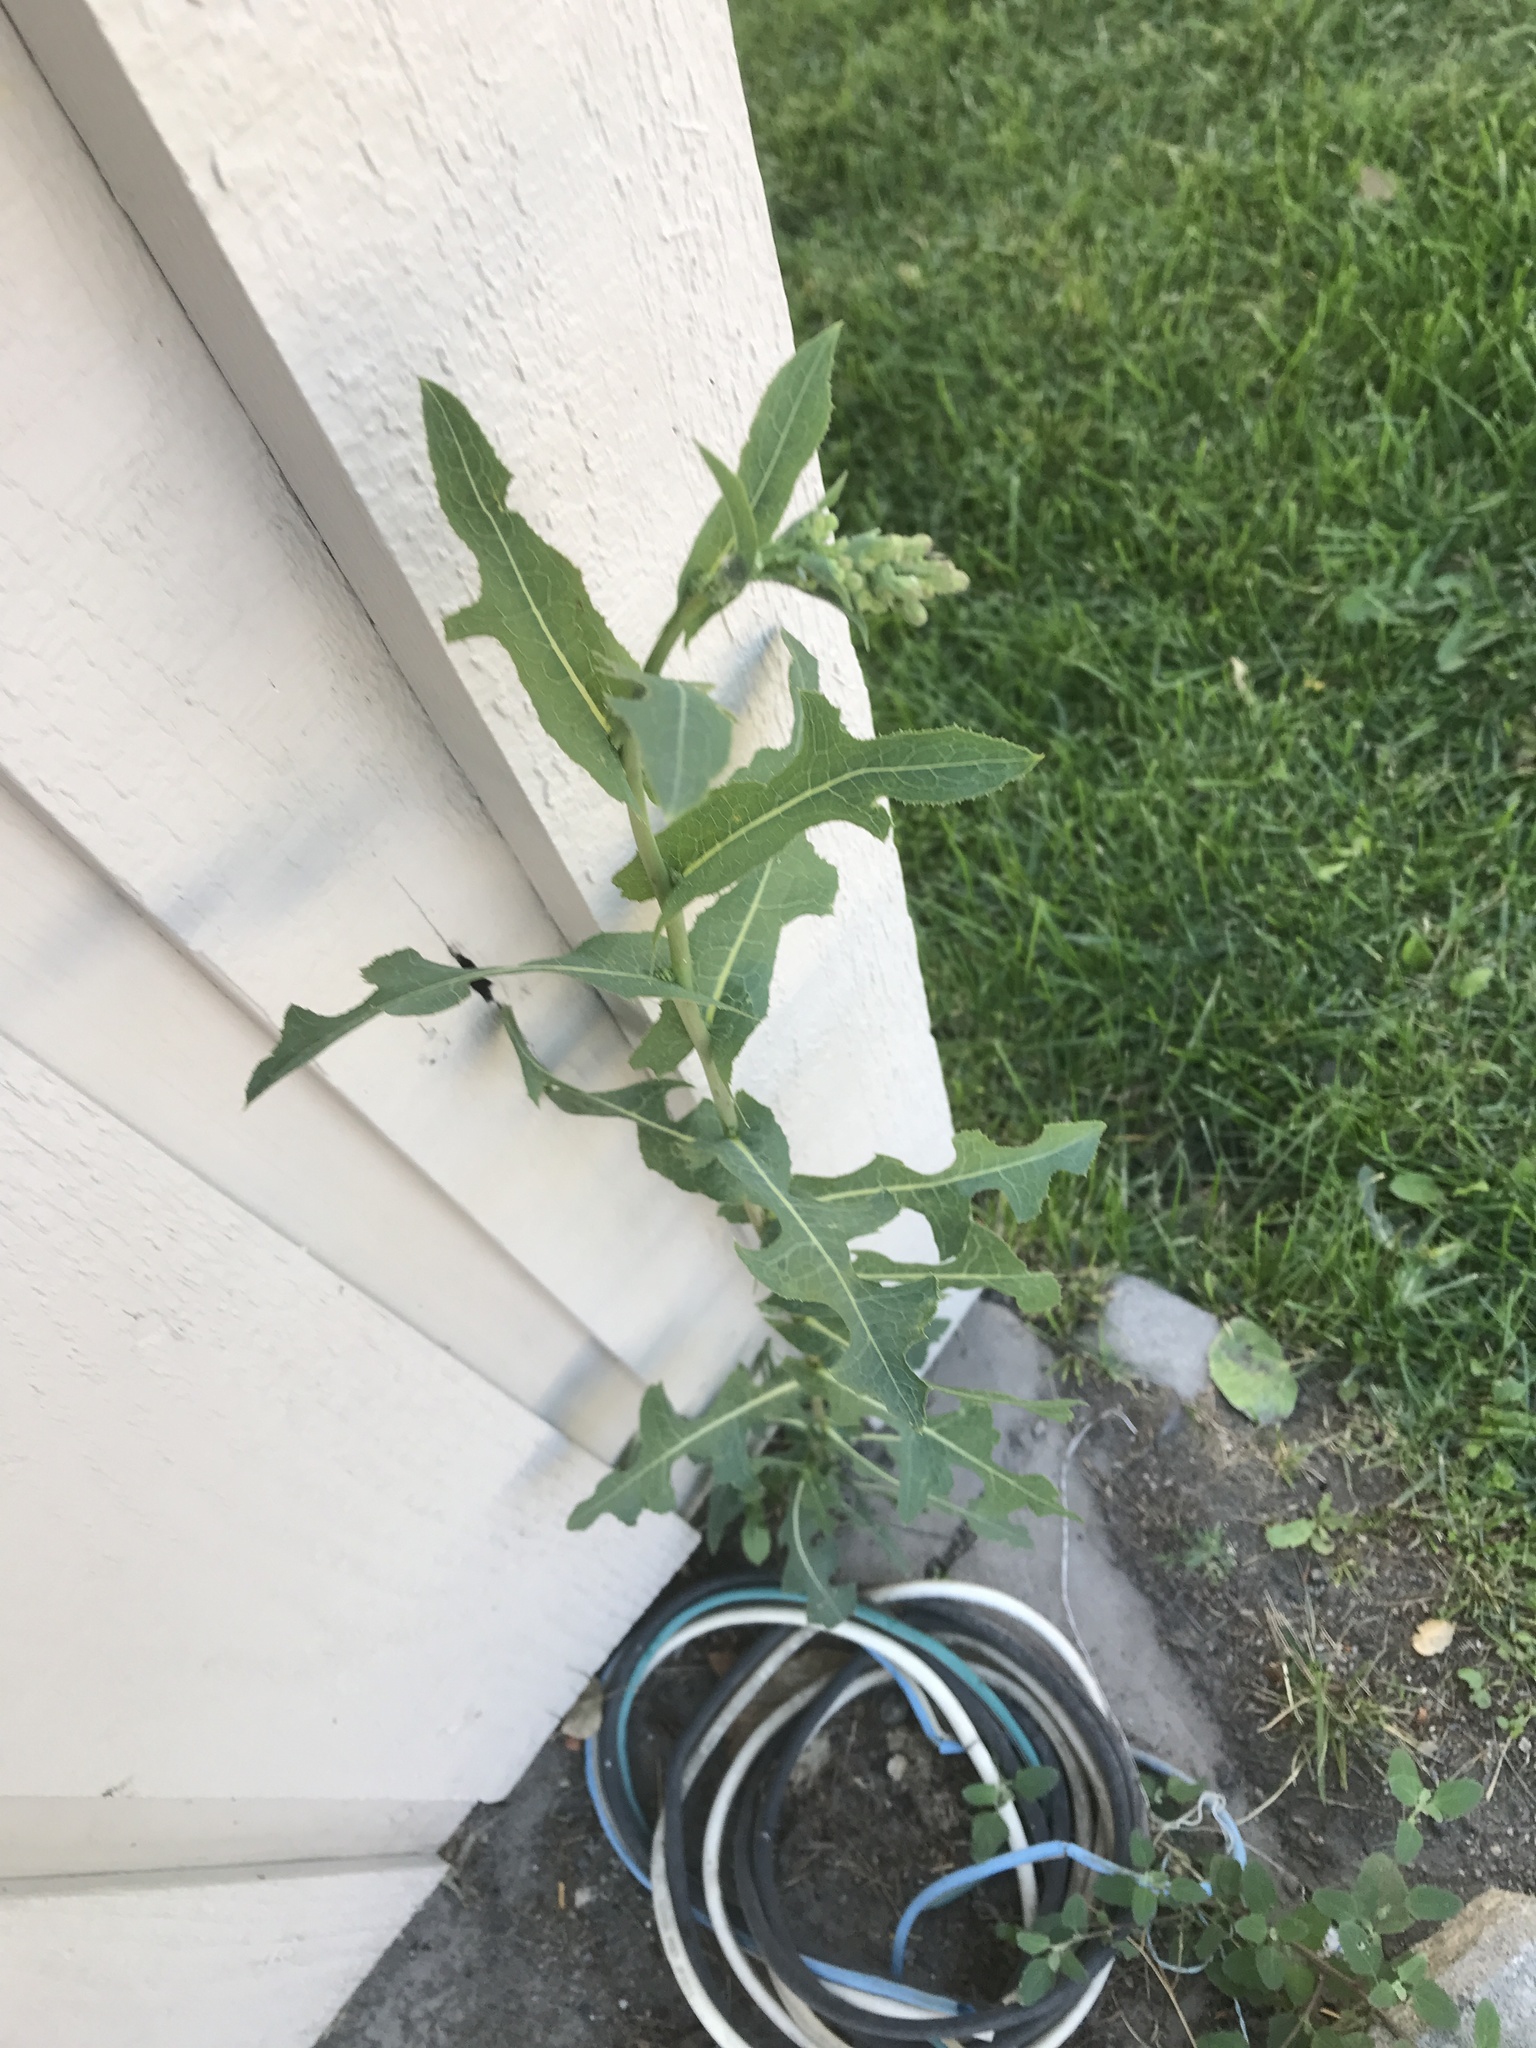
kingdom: Plantae
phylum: Tracheophyta
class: Magnoliopsida
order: Asterales
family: Asteraceae
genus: Lactuca
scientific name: Lactuca serriola
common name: Prickly lettuce
